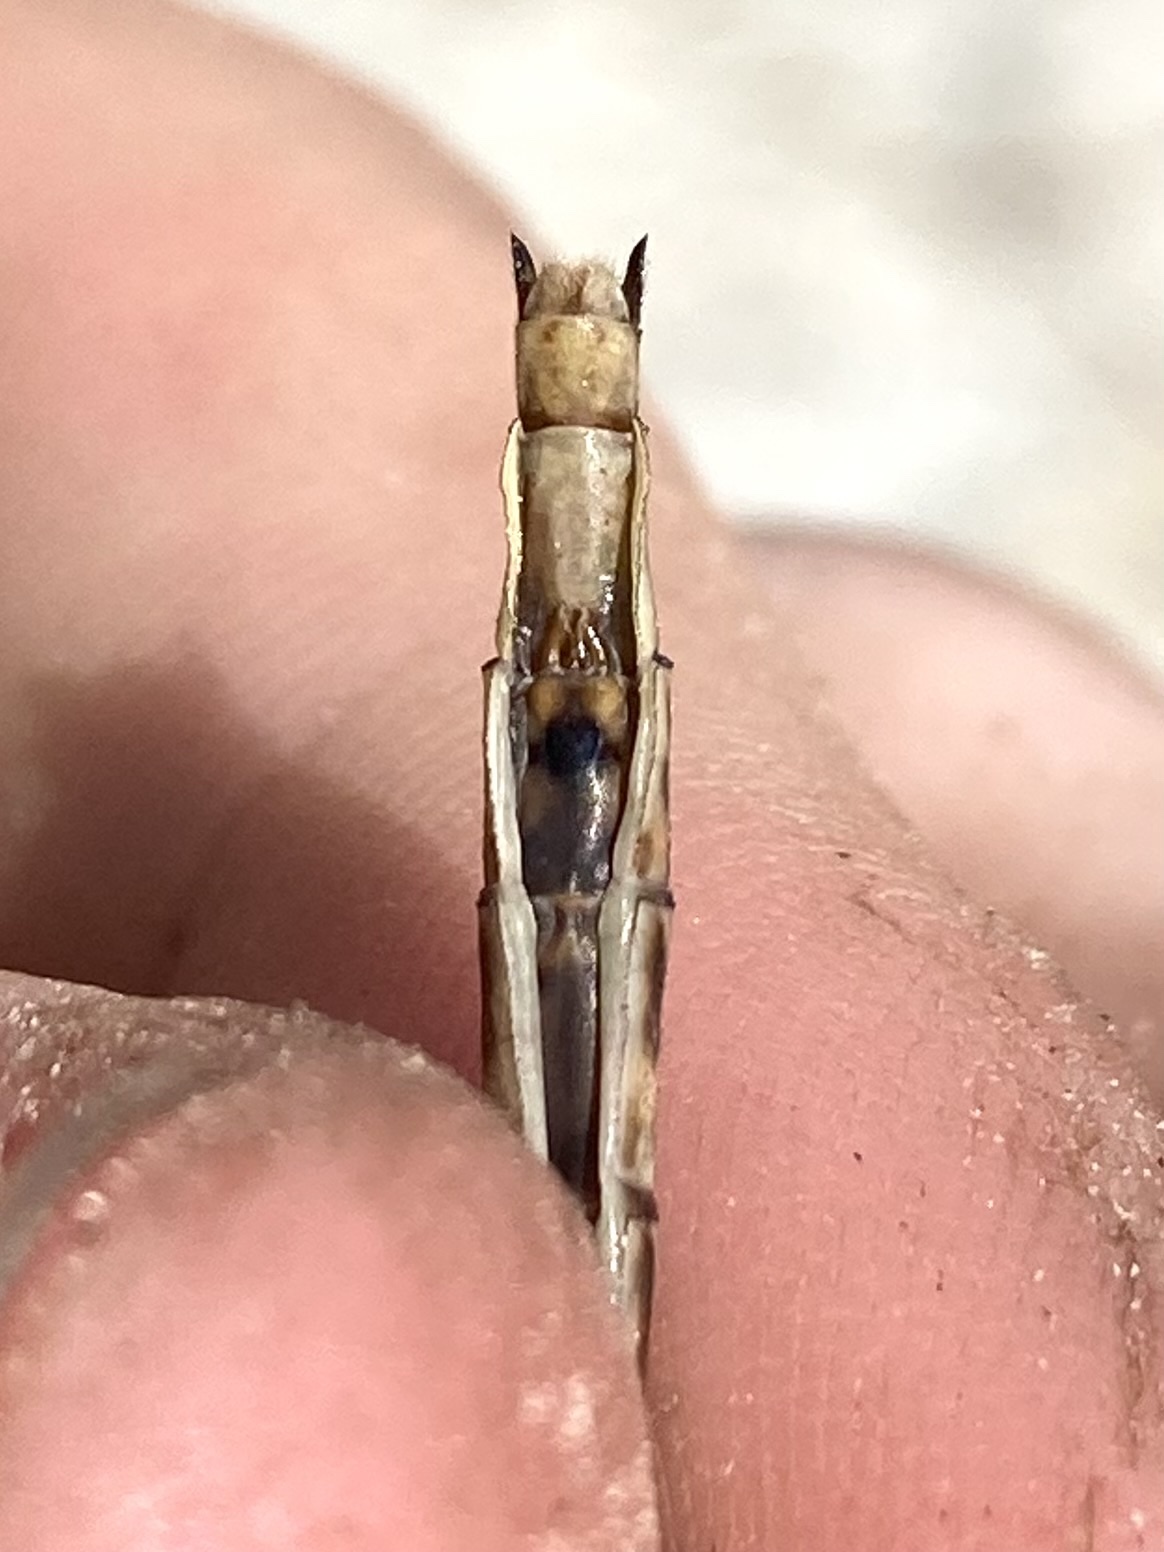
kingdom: Animalia
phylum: Arthropoda
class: Insecta
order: Odonata
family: Gomphidae
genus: Phanogomphus
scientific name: Phanogomphus spicatus
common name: Dusky clubtail
